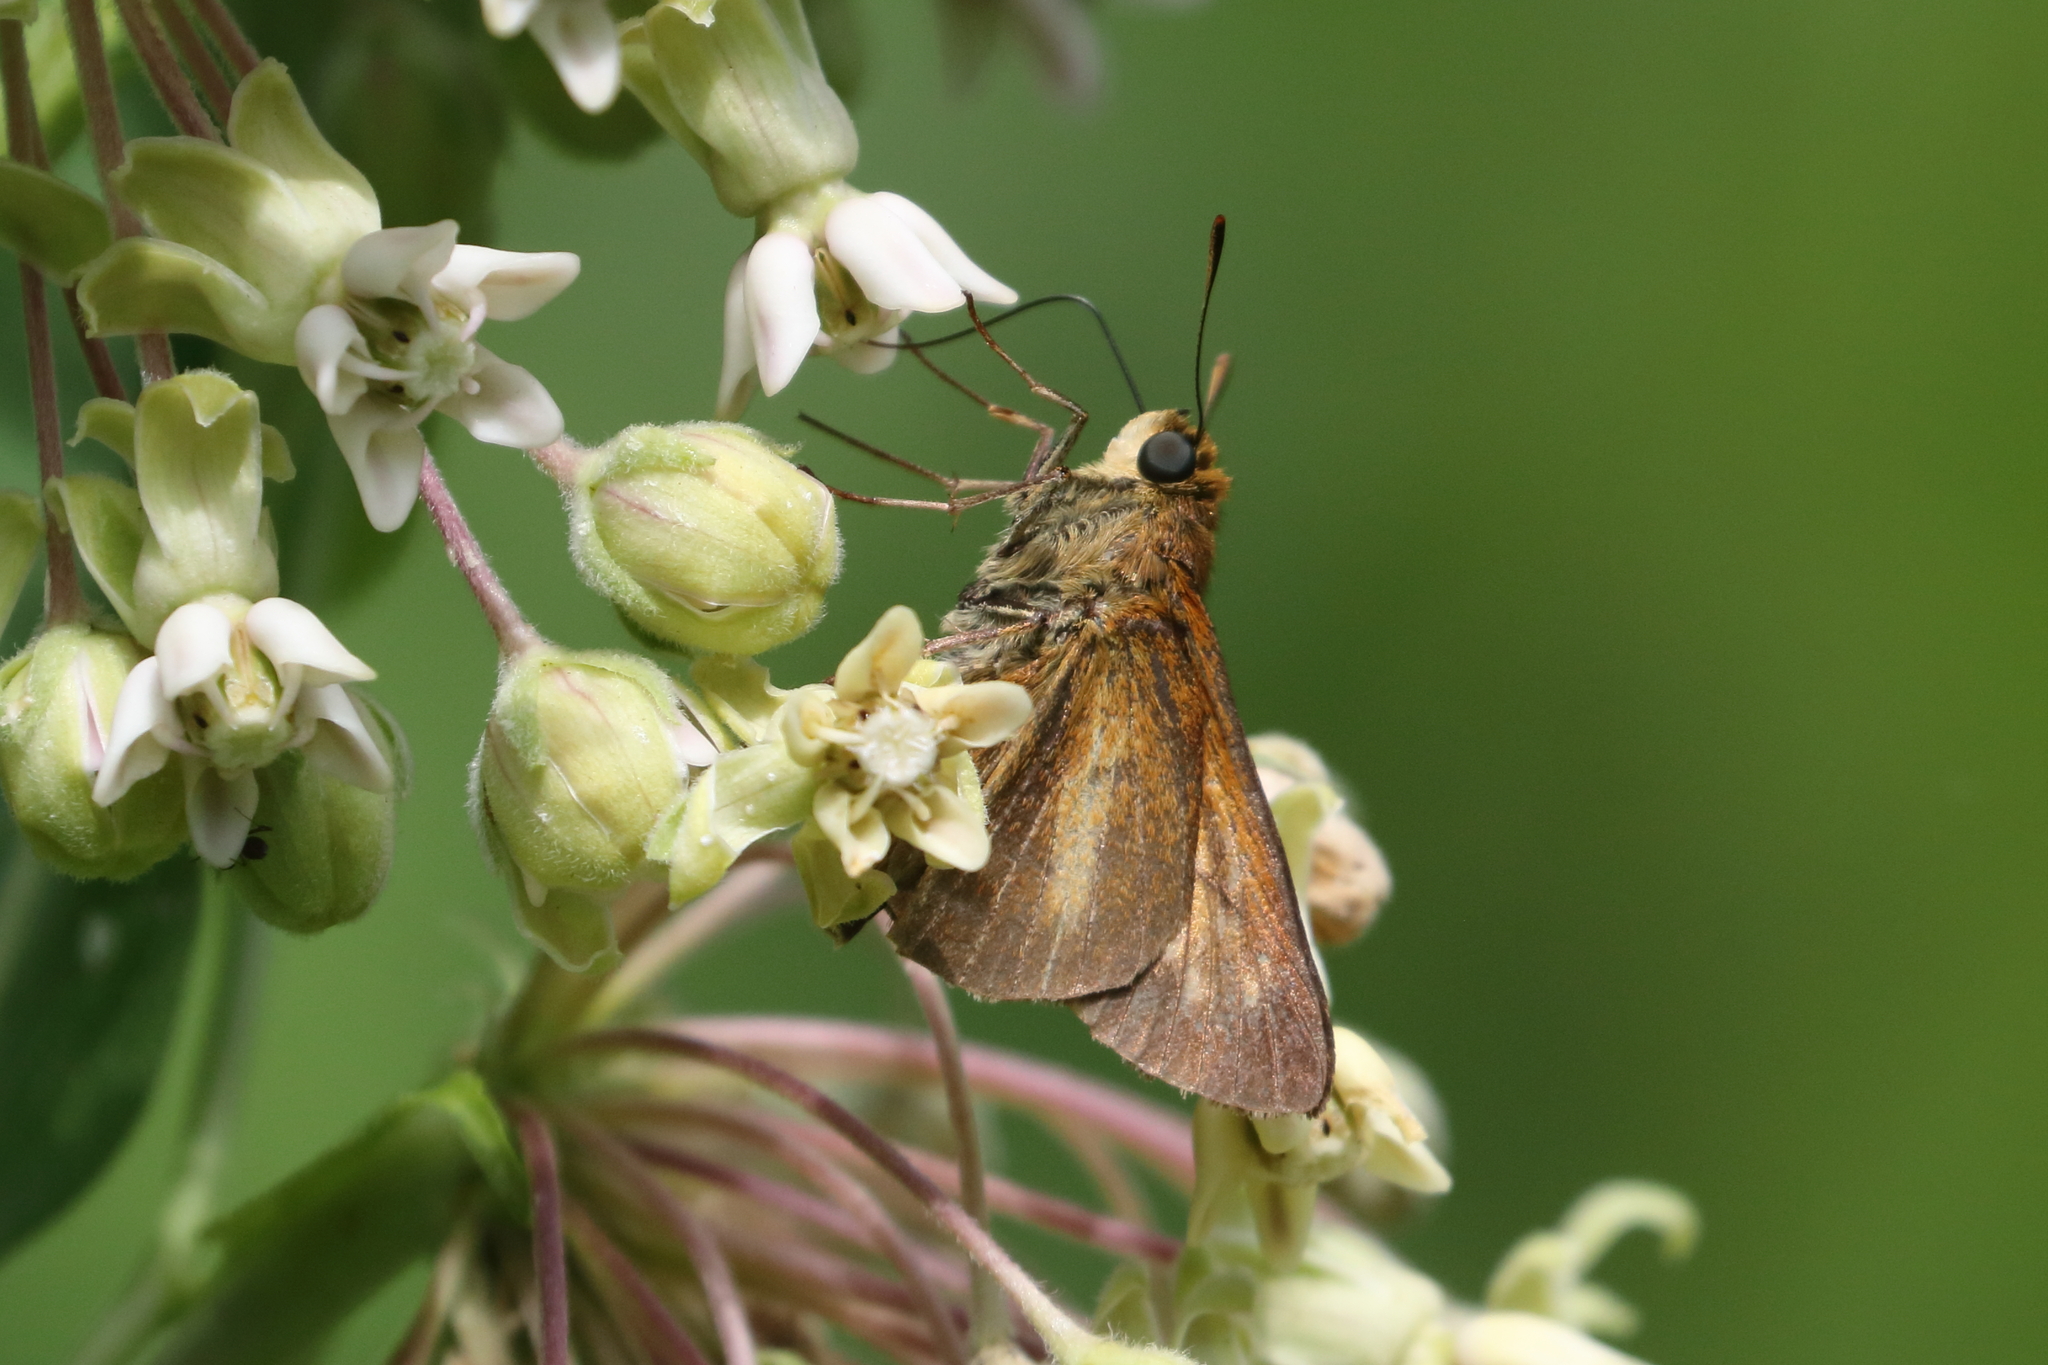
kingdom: Animalia
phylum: Arthropoda
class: Insecta
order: Lepidoptera
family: Hesperiidae
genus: Euphyes
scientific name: Euphyes dion
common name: Dion skipper
